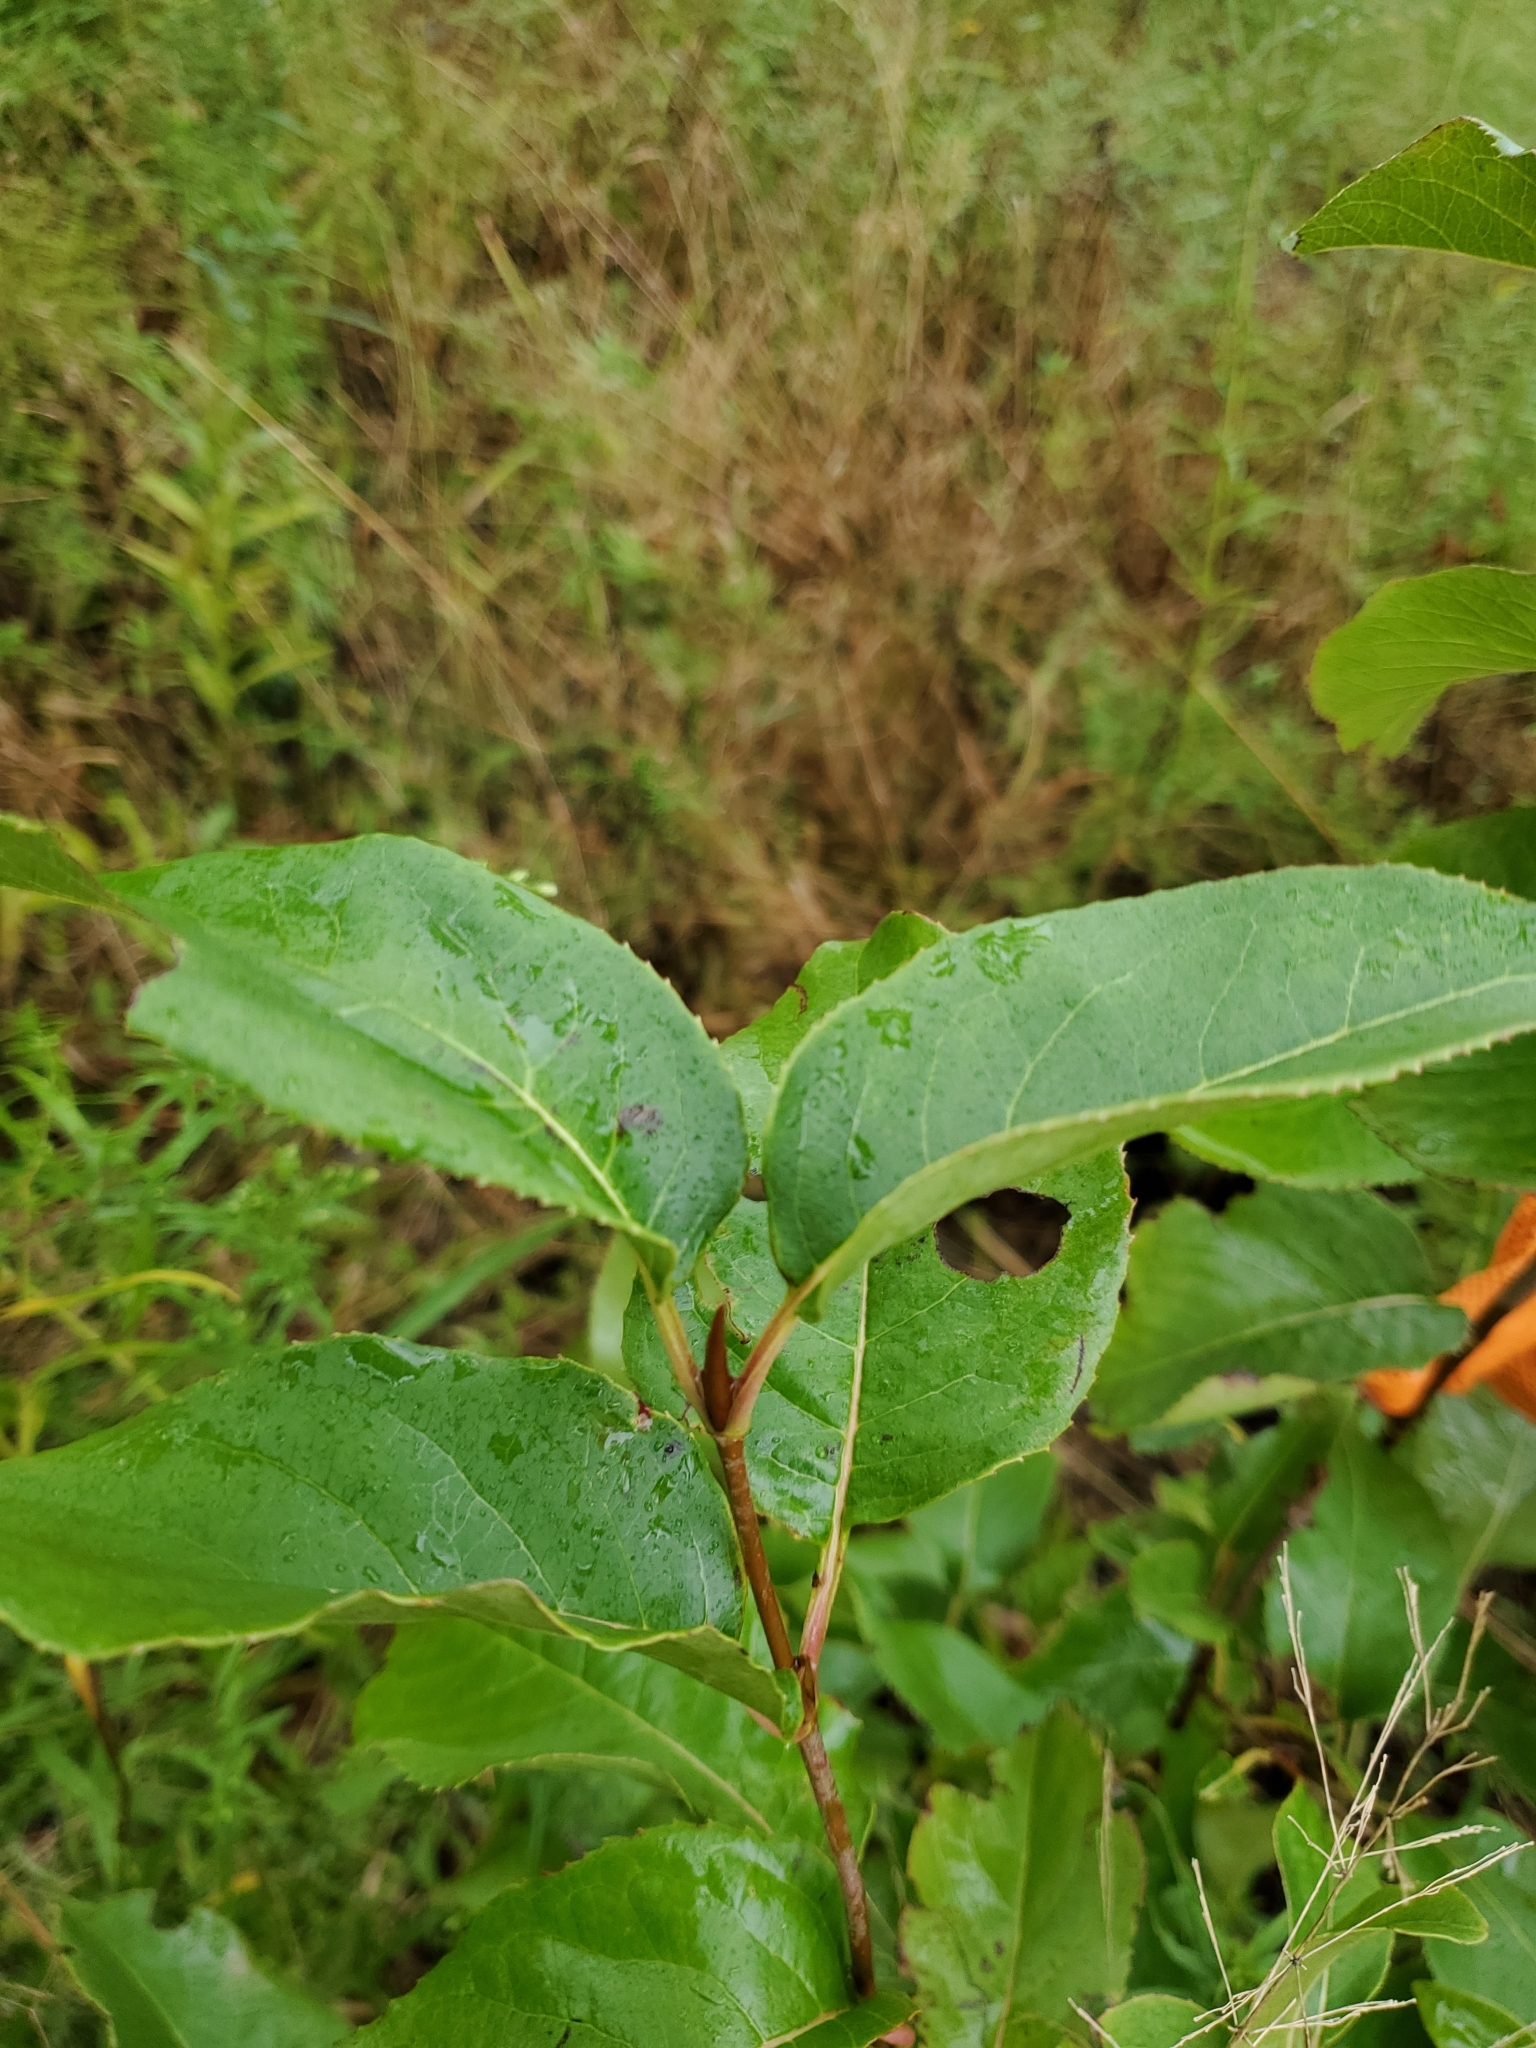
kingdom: Plantae
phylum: Tracheophyta
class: Magnoliopsida
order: Dipsacales
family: Viburnaceae
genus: Viburnum
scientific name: Viburnum lentago
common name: Black haw
